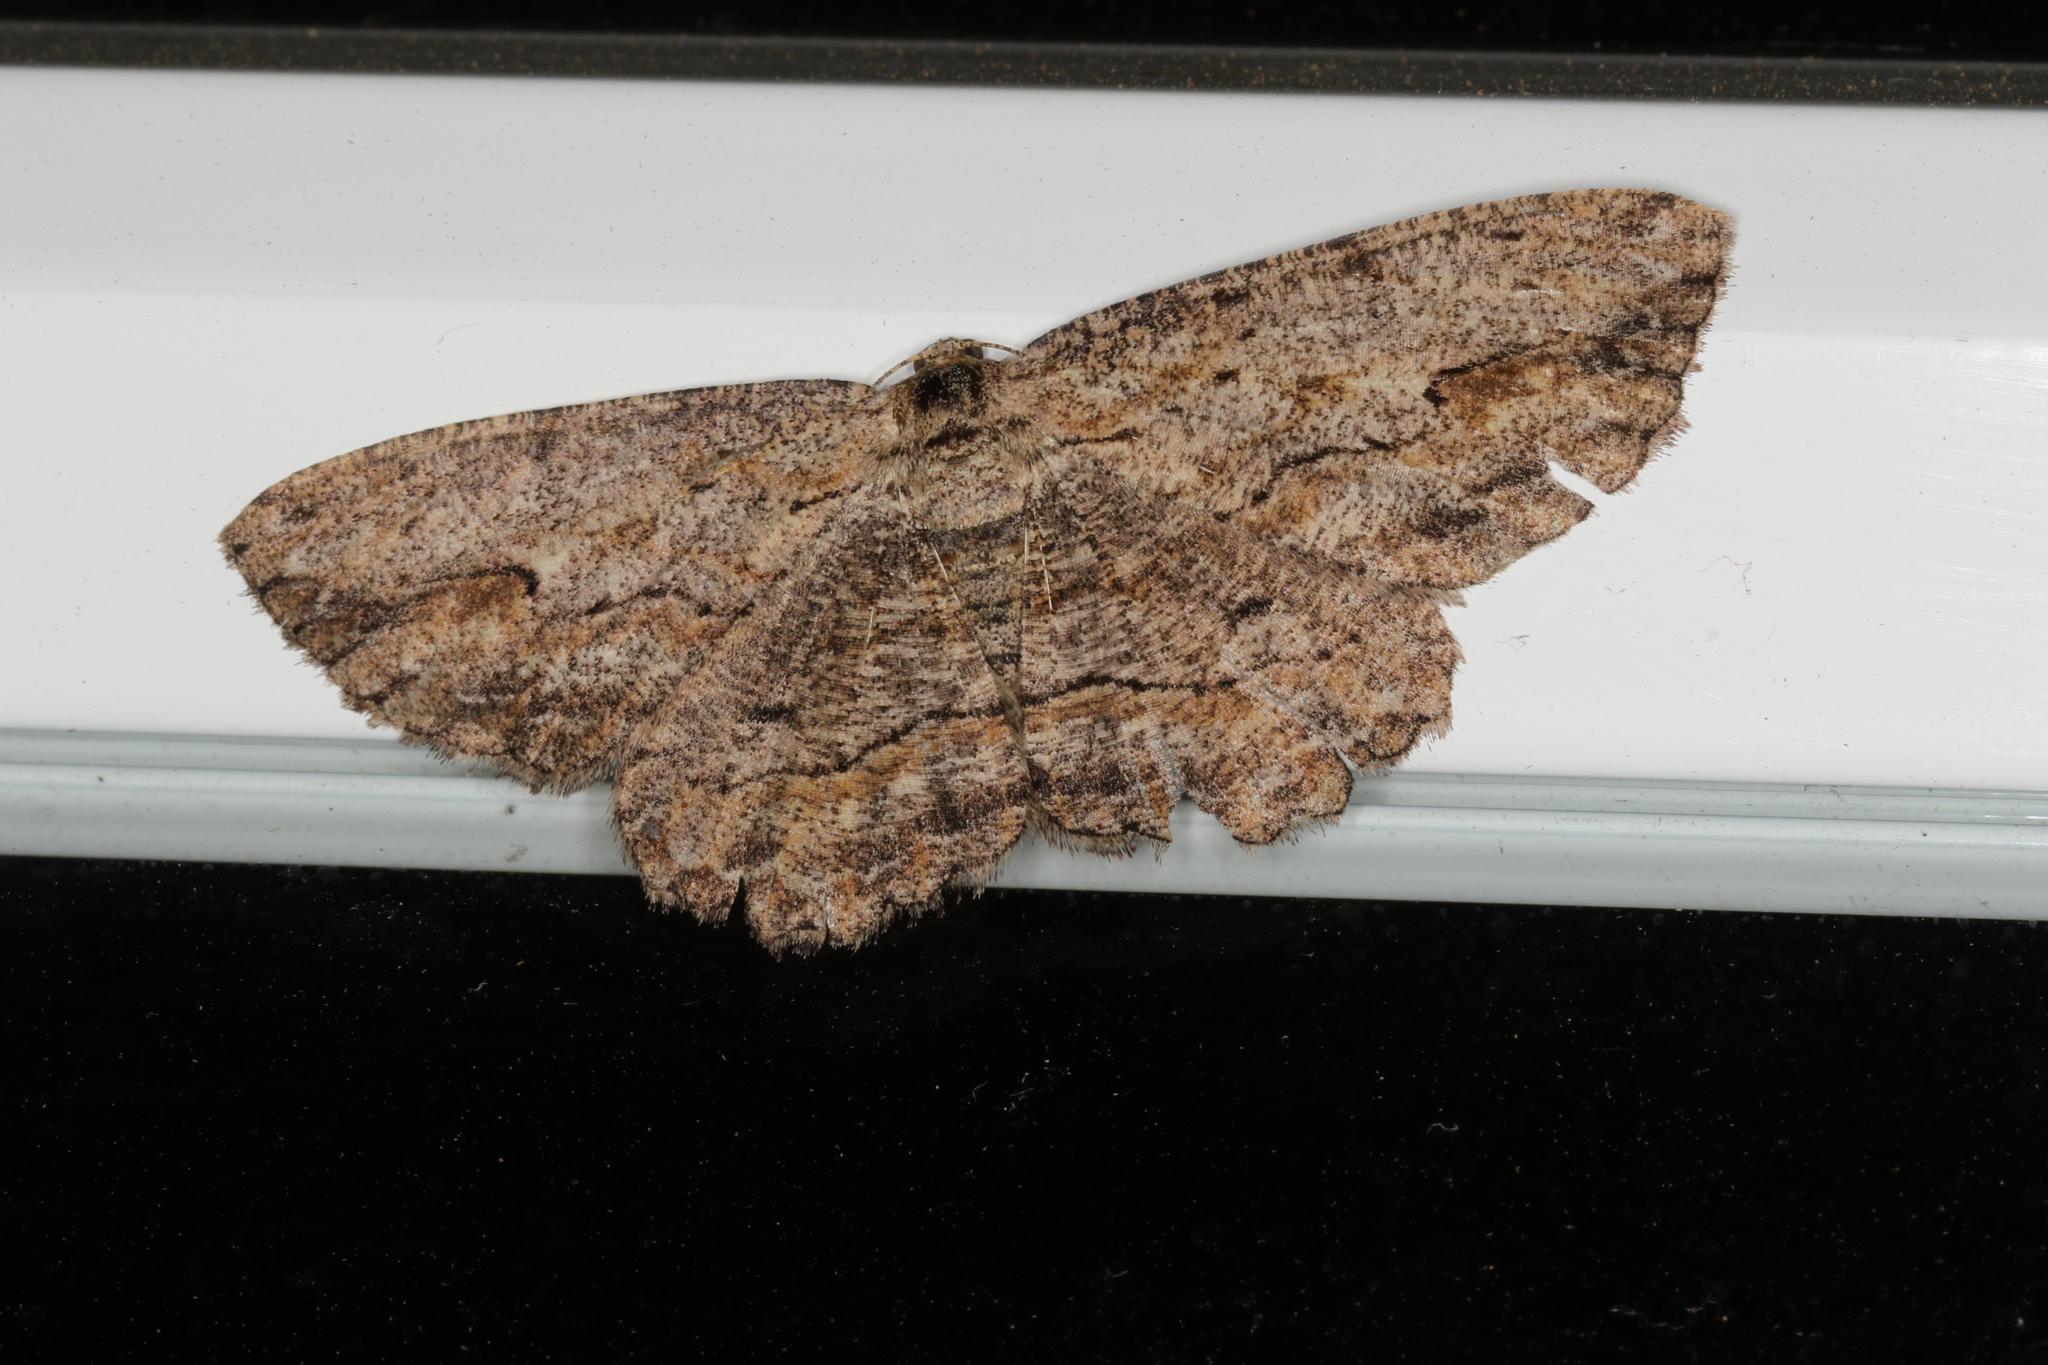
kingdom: Animalia
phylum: Arthropoda
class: Insecta
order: Lepidoptera
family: Geometridae
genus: Ectropis
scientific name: Ectropis excursaria
